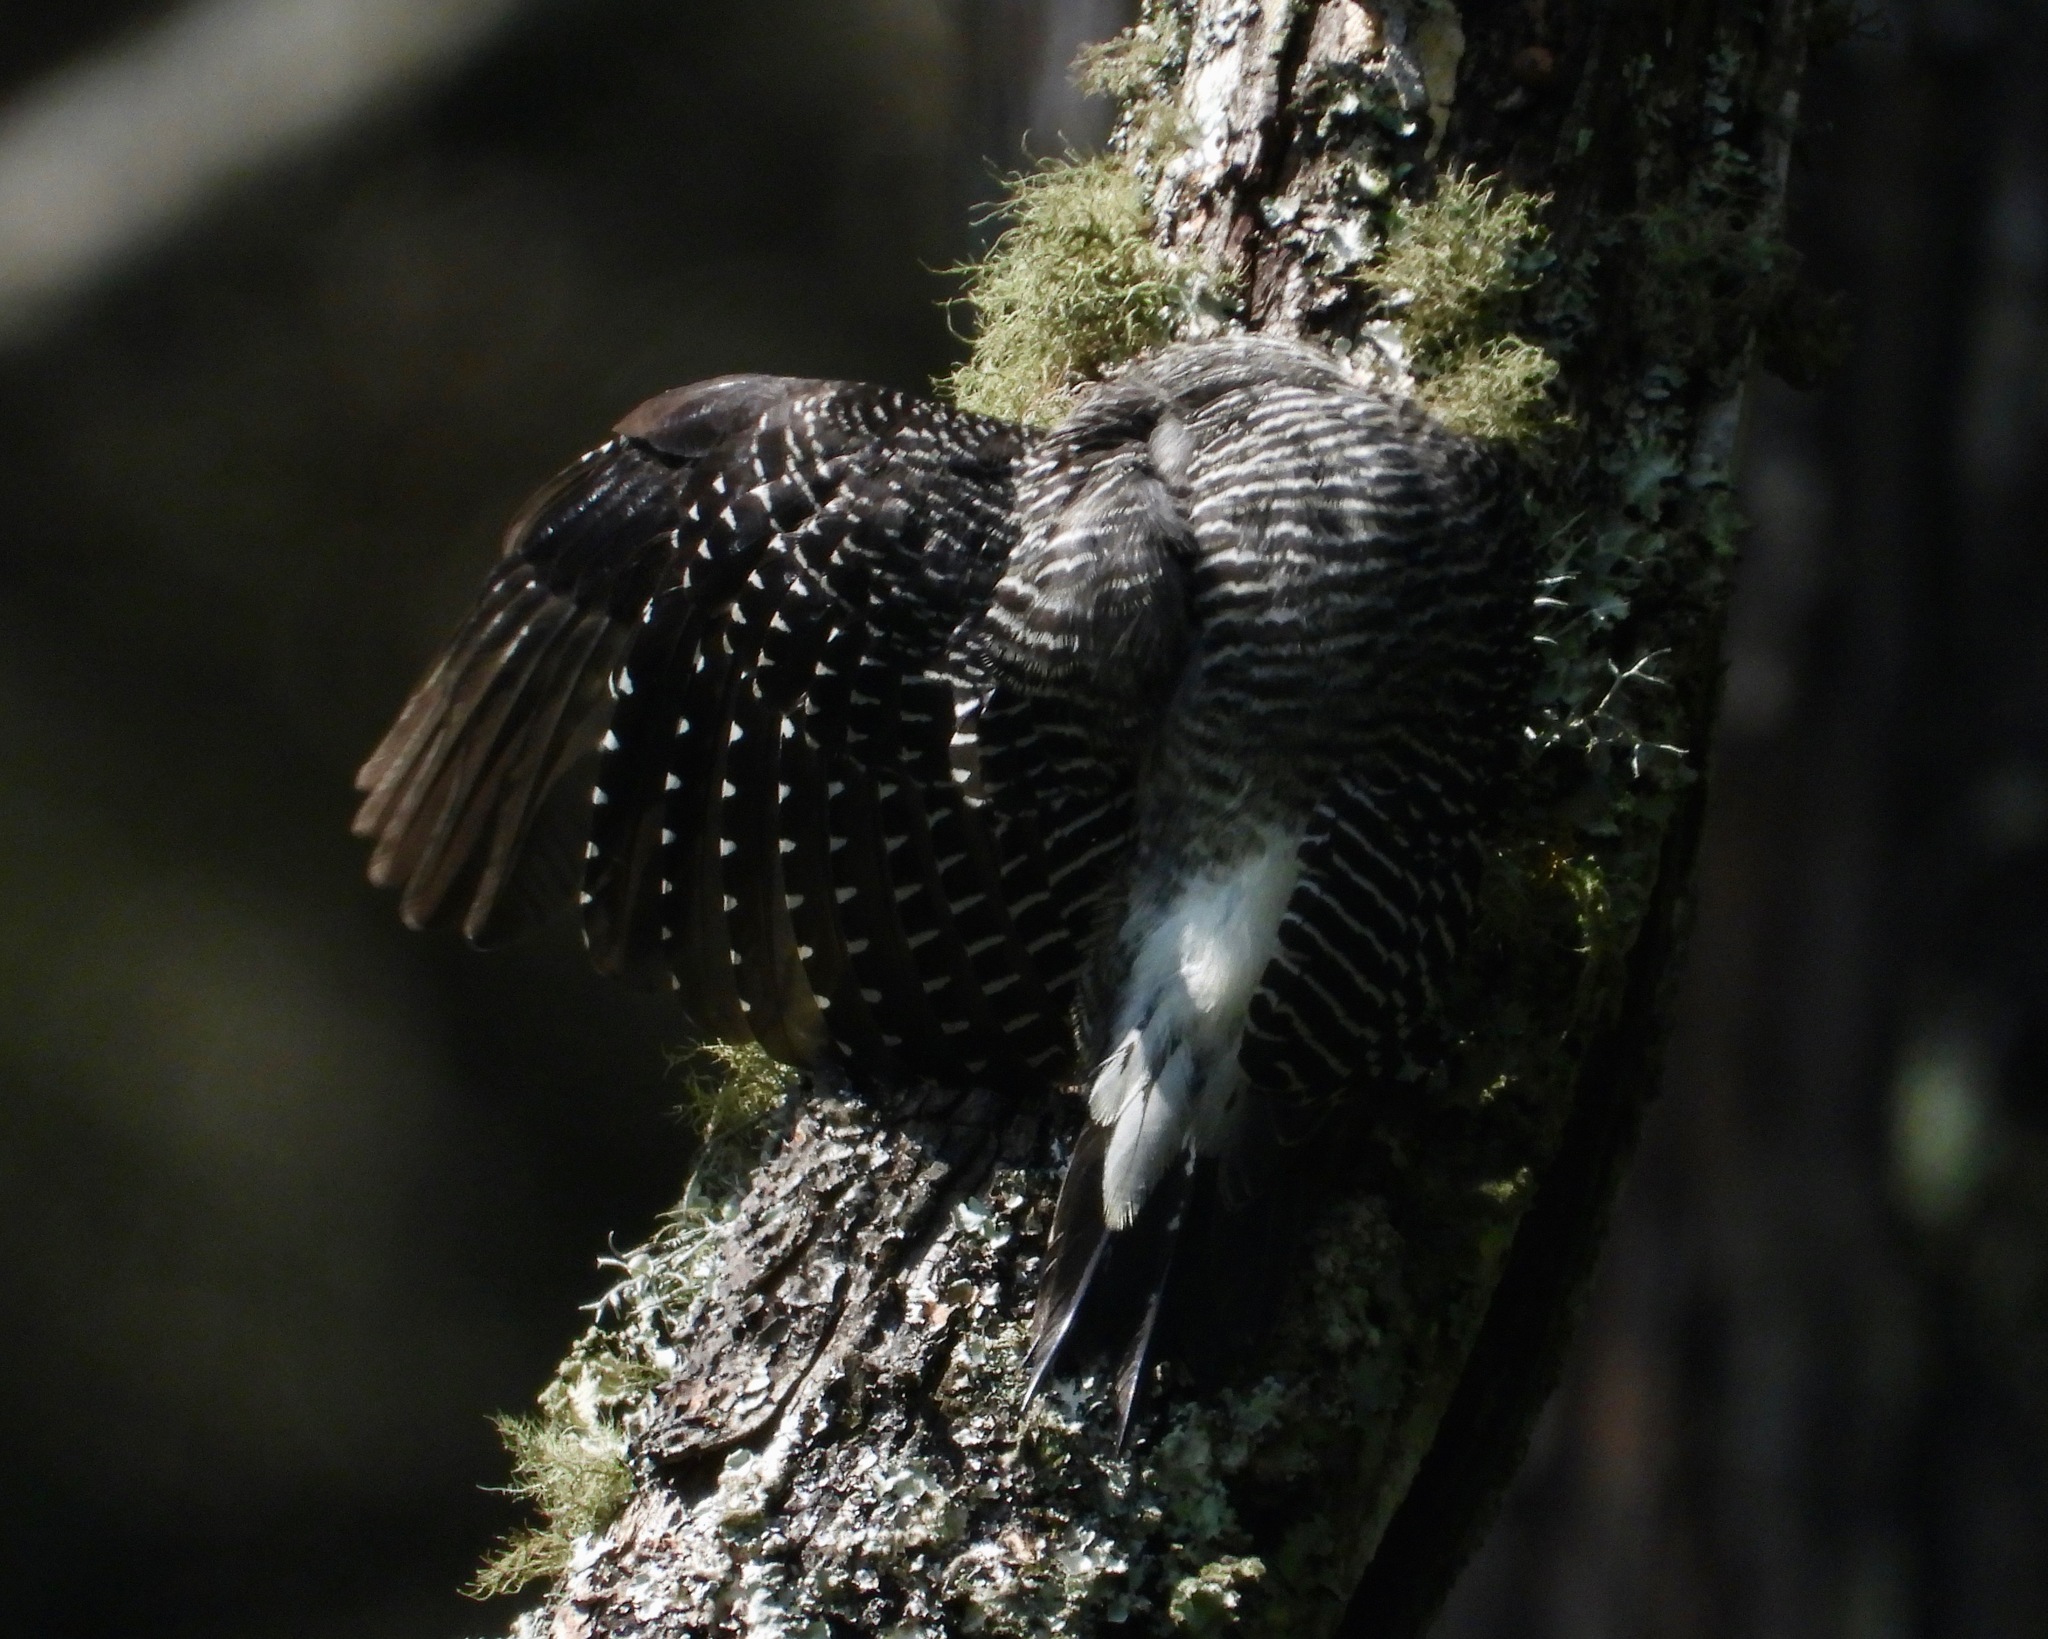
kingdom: Animalia
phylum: Chordata
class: Aves
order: Piciformes
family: Picidae
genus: Melanerpes
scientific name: Melanerpes santacruzi
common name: Velasquez's woodpecker
